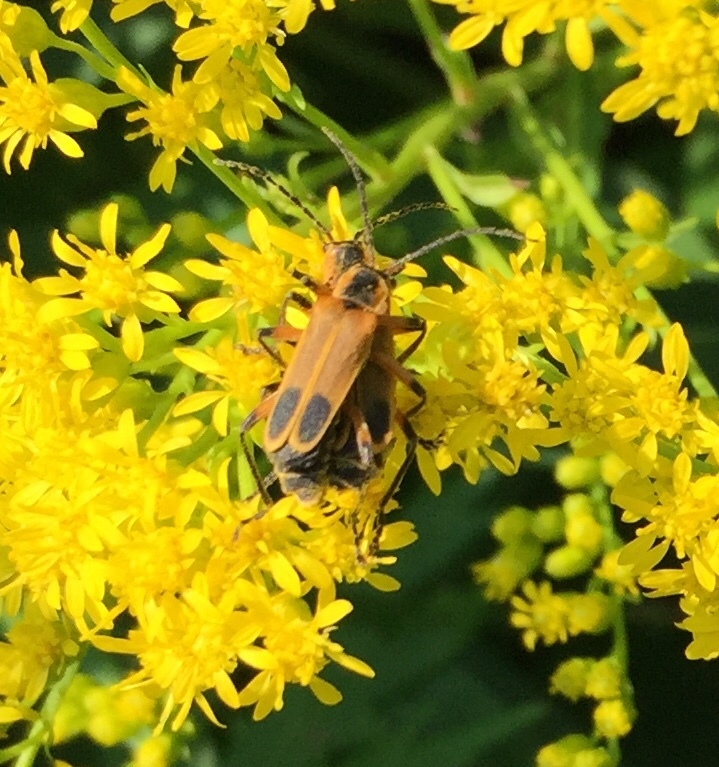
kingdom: Animalia
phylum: Arthropoda
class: Insecta
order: Coleoptera
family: Cantharidae
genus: Chauliognathus
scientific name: Chauliognathus marginatus
